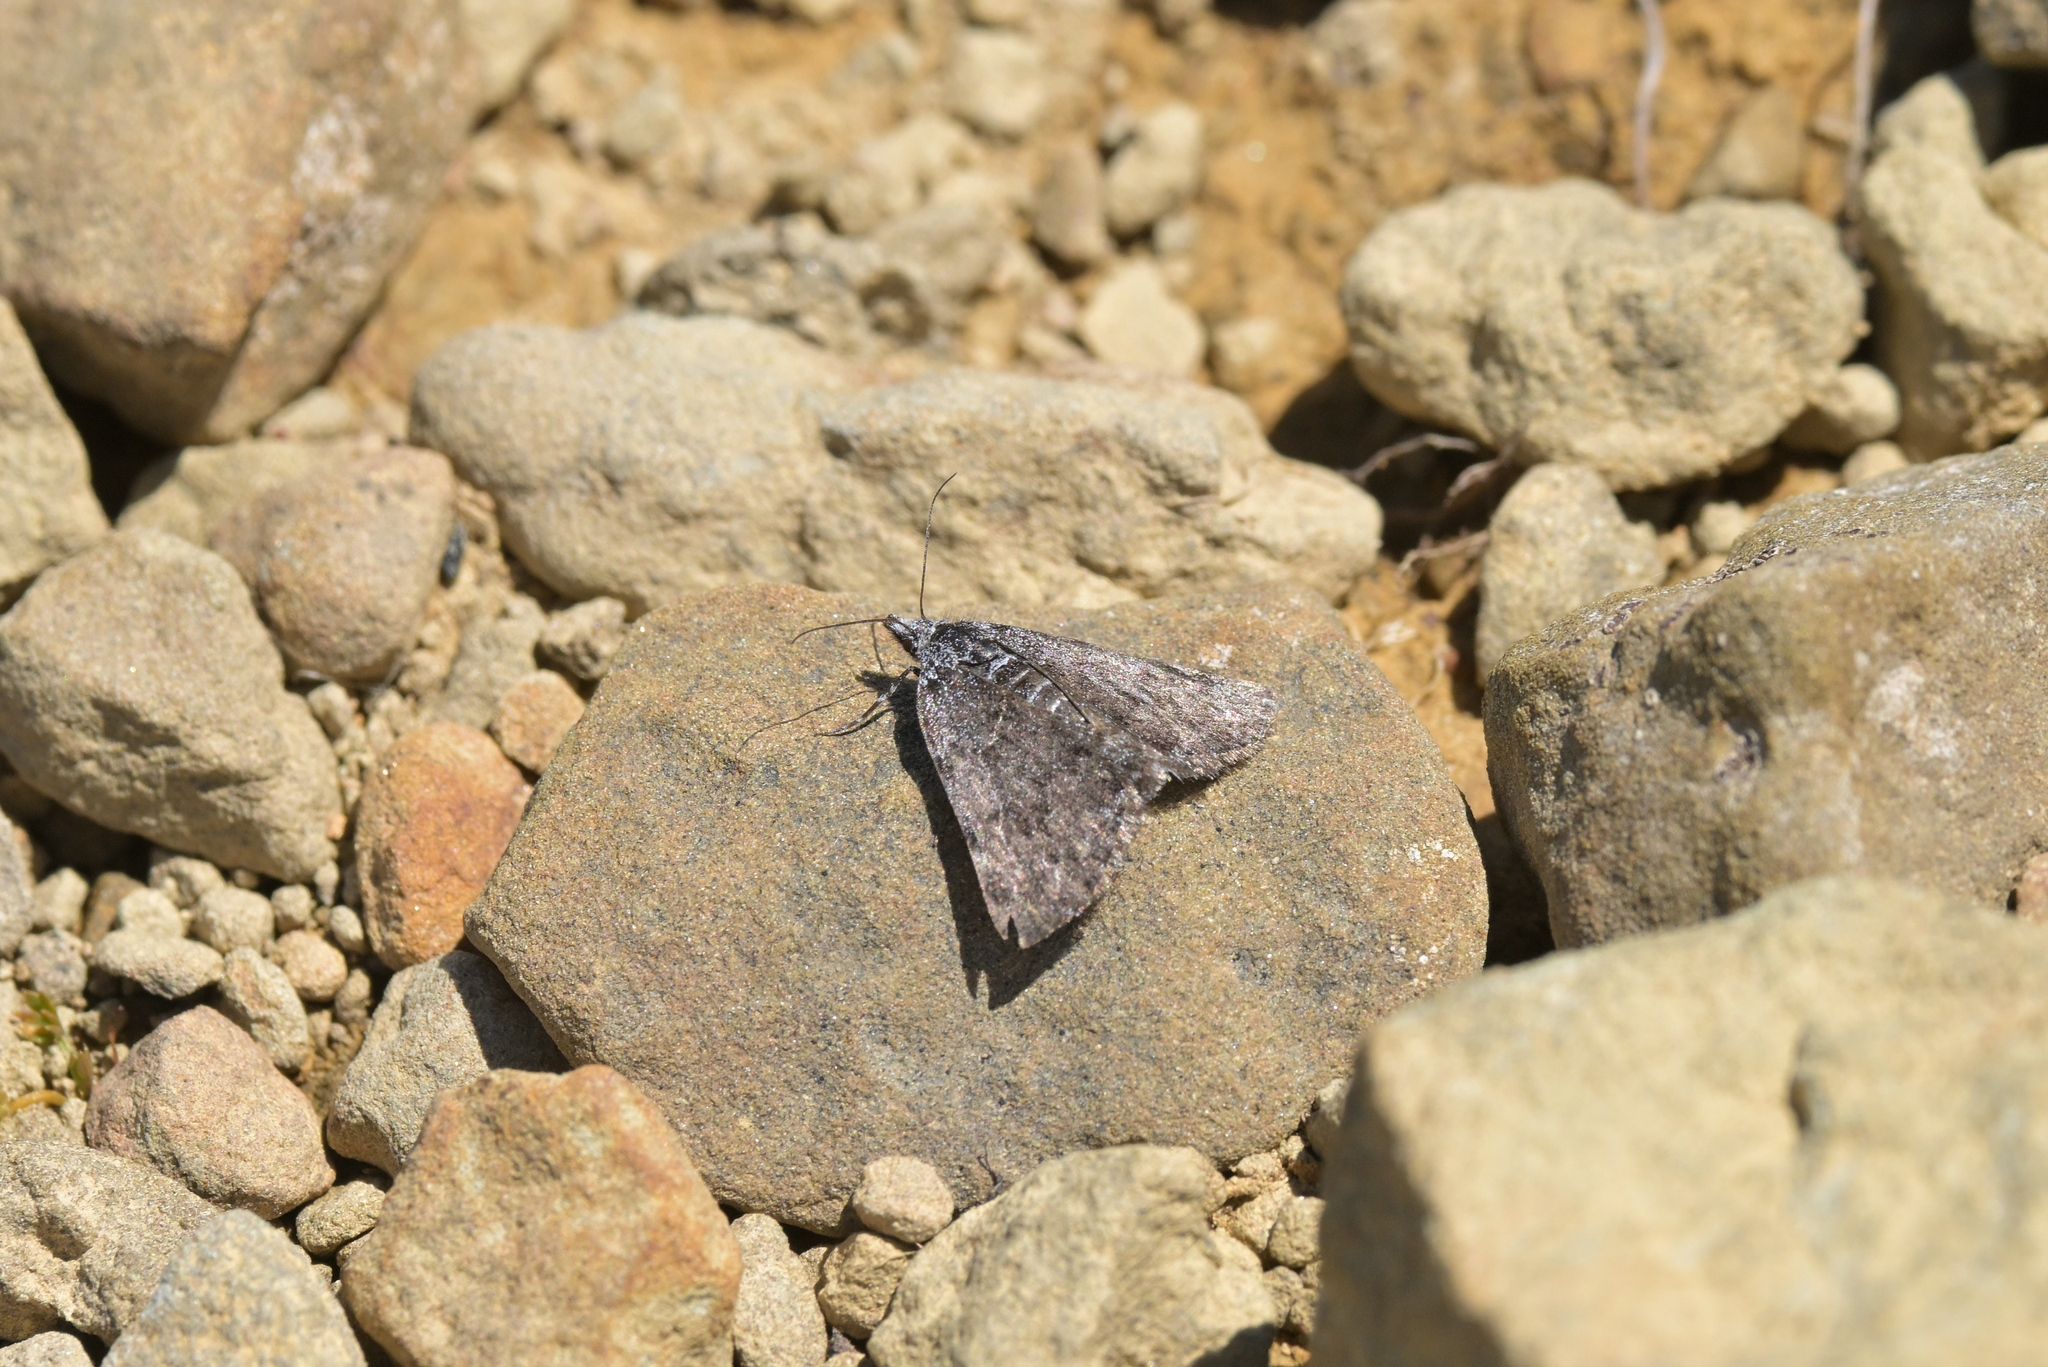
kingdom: Animalia
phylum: Arthropoda
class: Insecta
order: Lepidoptera
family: Geometridae
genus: Dichromodes
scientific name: Dichromodes niger
